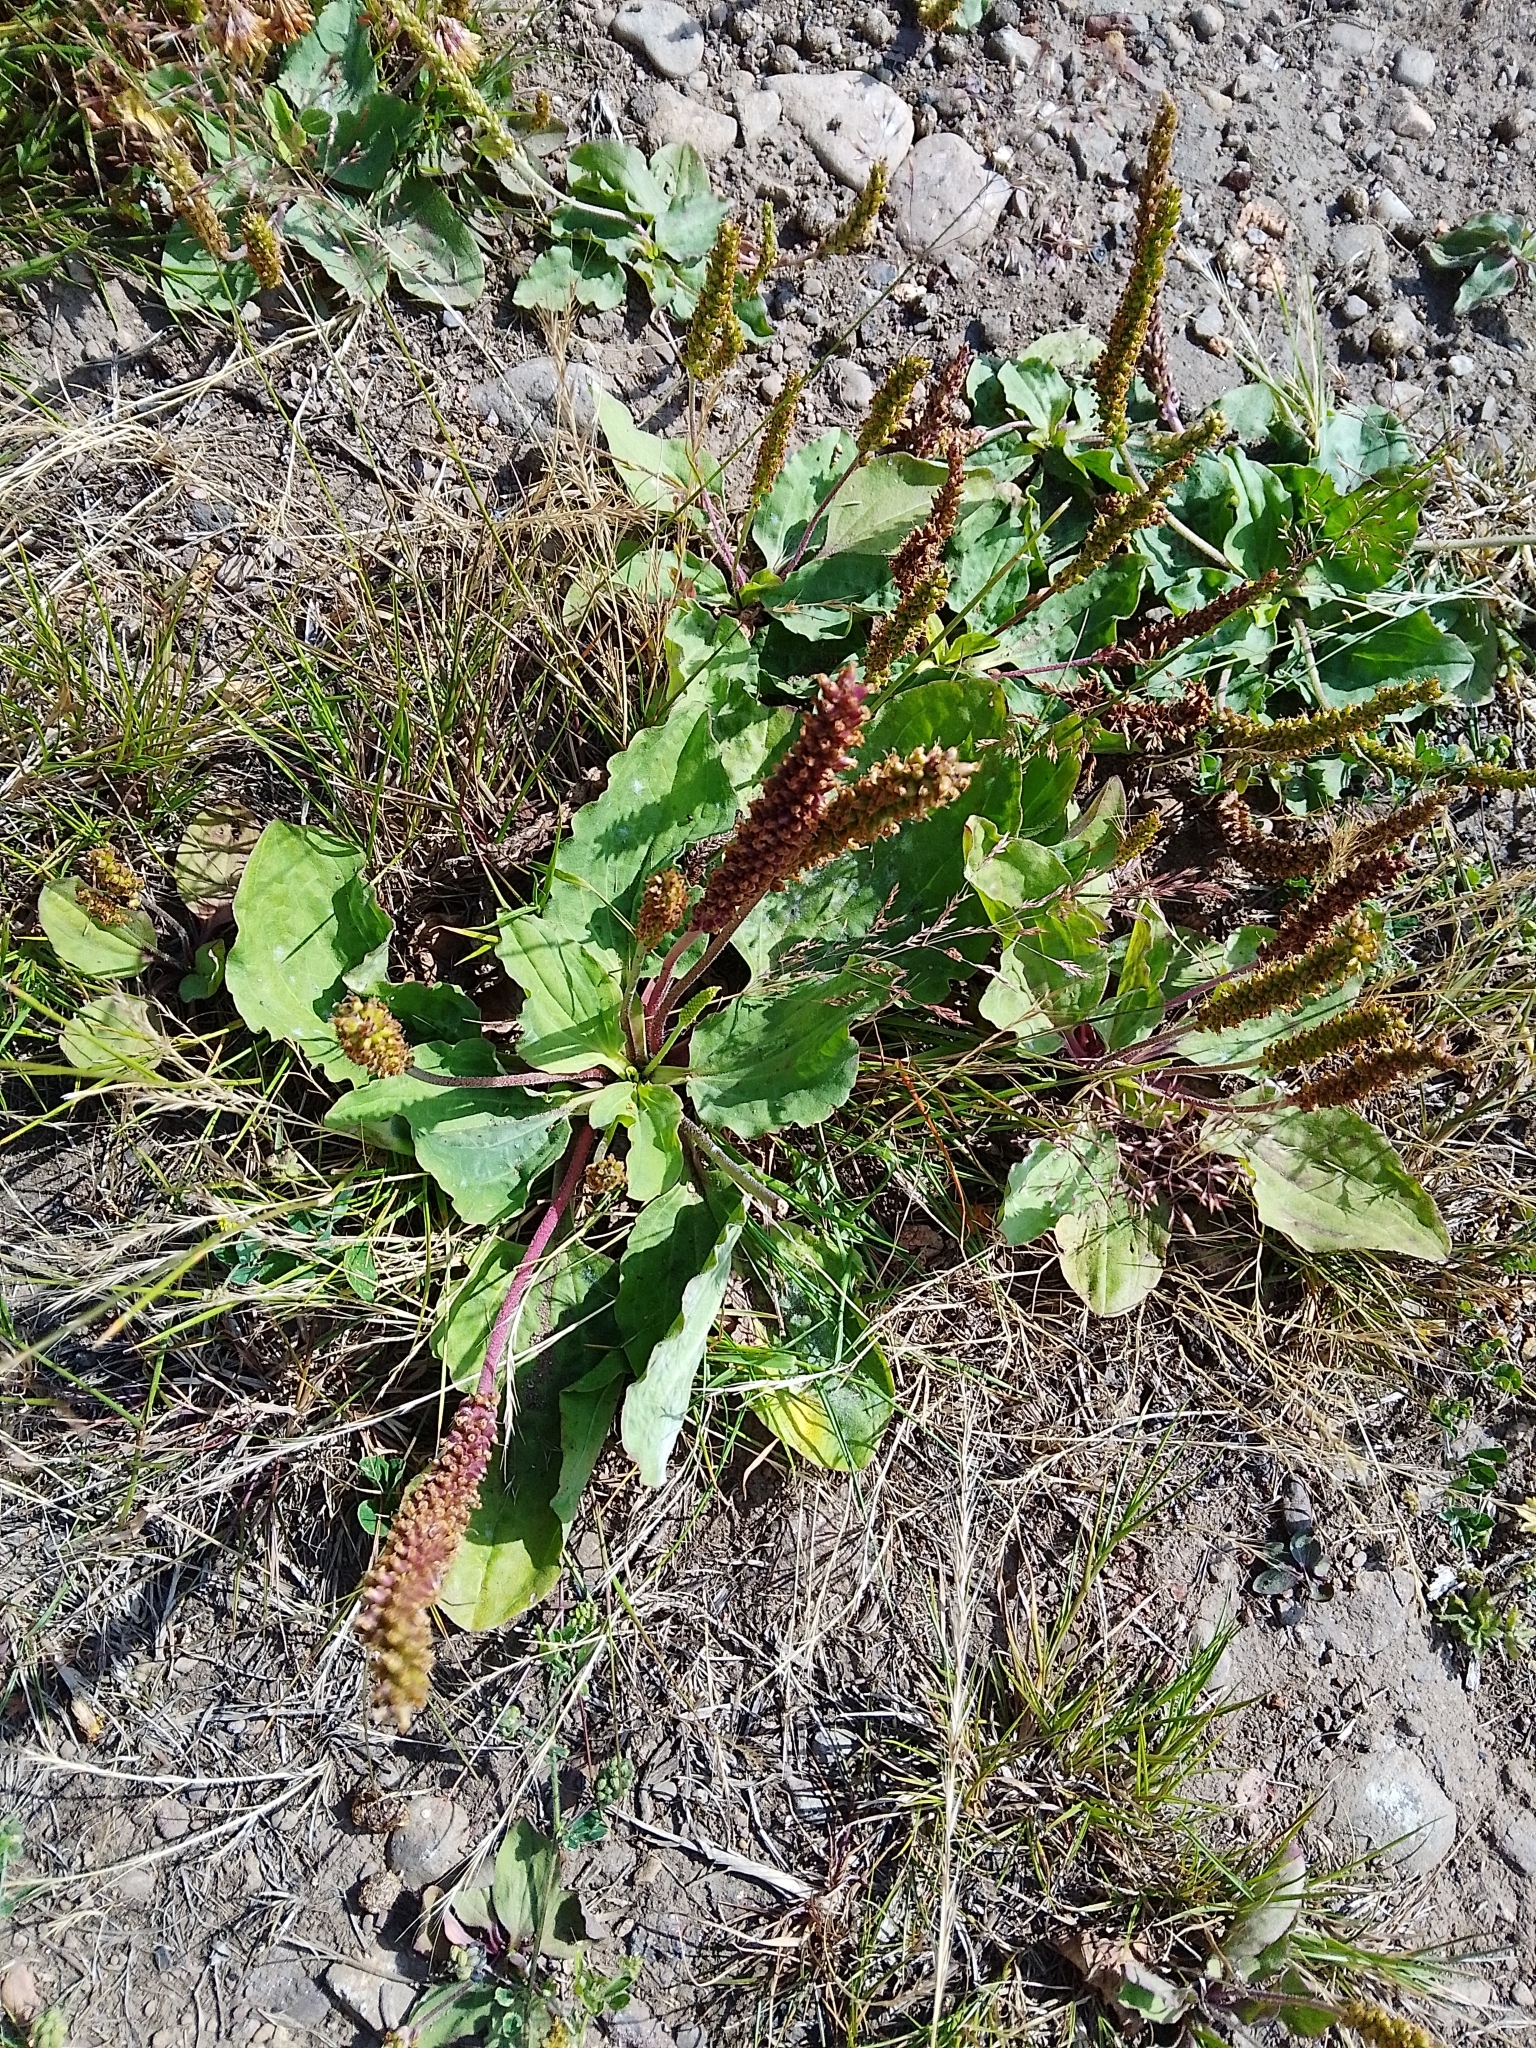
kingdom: Plantae
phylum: Tracheophyta
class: Magnoliopsida
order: Lamiales
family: Plantaginaceae
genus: Plantago
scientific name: Plantago major
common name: Common plantain
